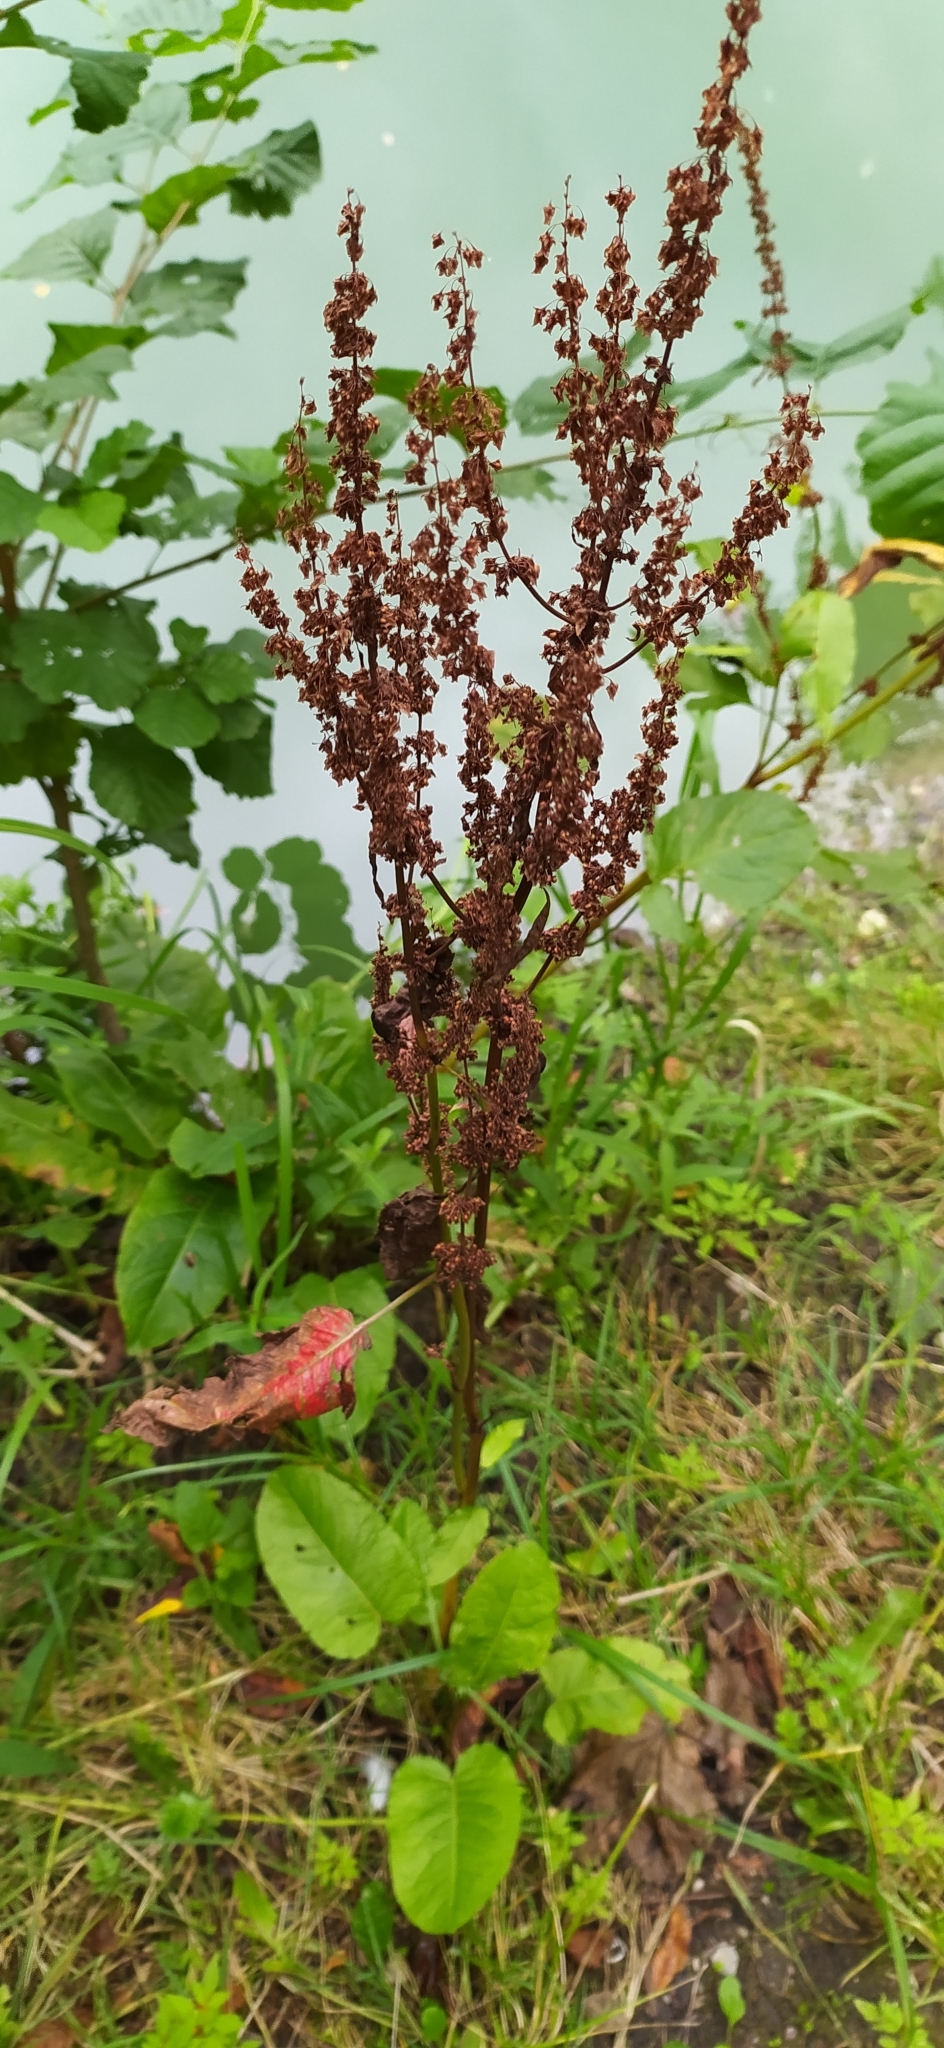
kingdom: Plantae
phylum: Tracheophyta
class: Magnoliopsida
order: Caryophyllales
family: Polygonaceae
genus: Rumex
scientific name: Rumex obtusifolius
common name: Bitter dock
